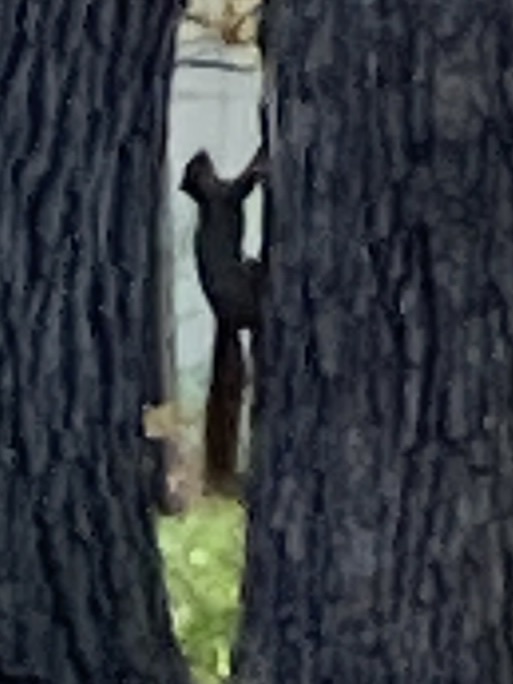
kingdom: Animalia
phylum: Chordata
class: Mammalia
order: Rodentia
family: Sciuridae
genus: Sciurus
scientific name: Sciurus niger
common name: Fox squirrel
